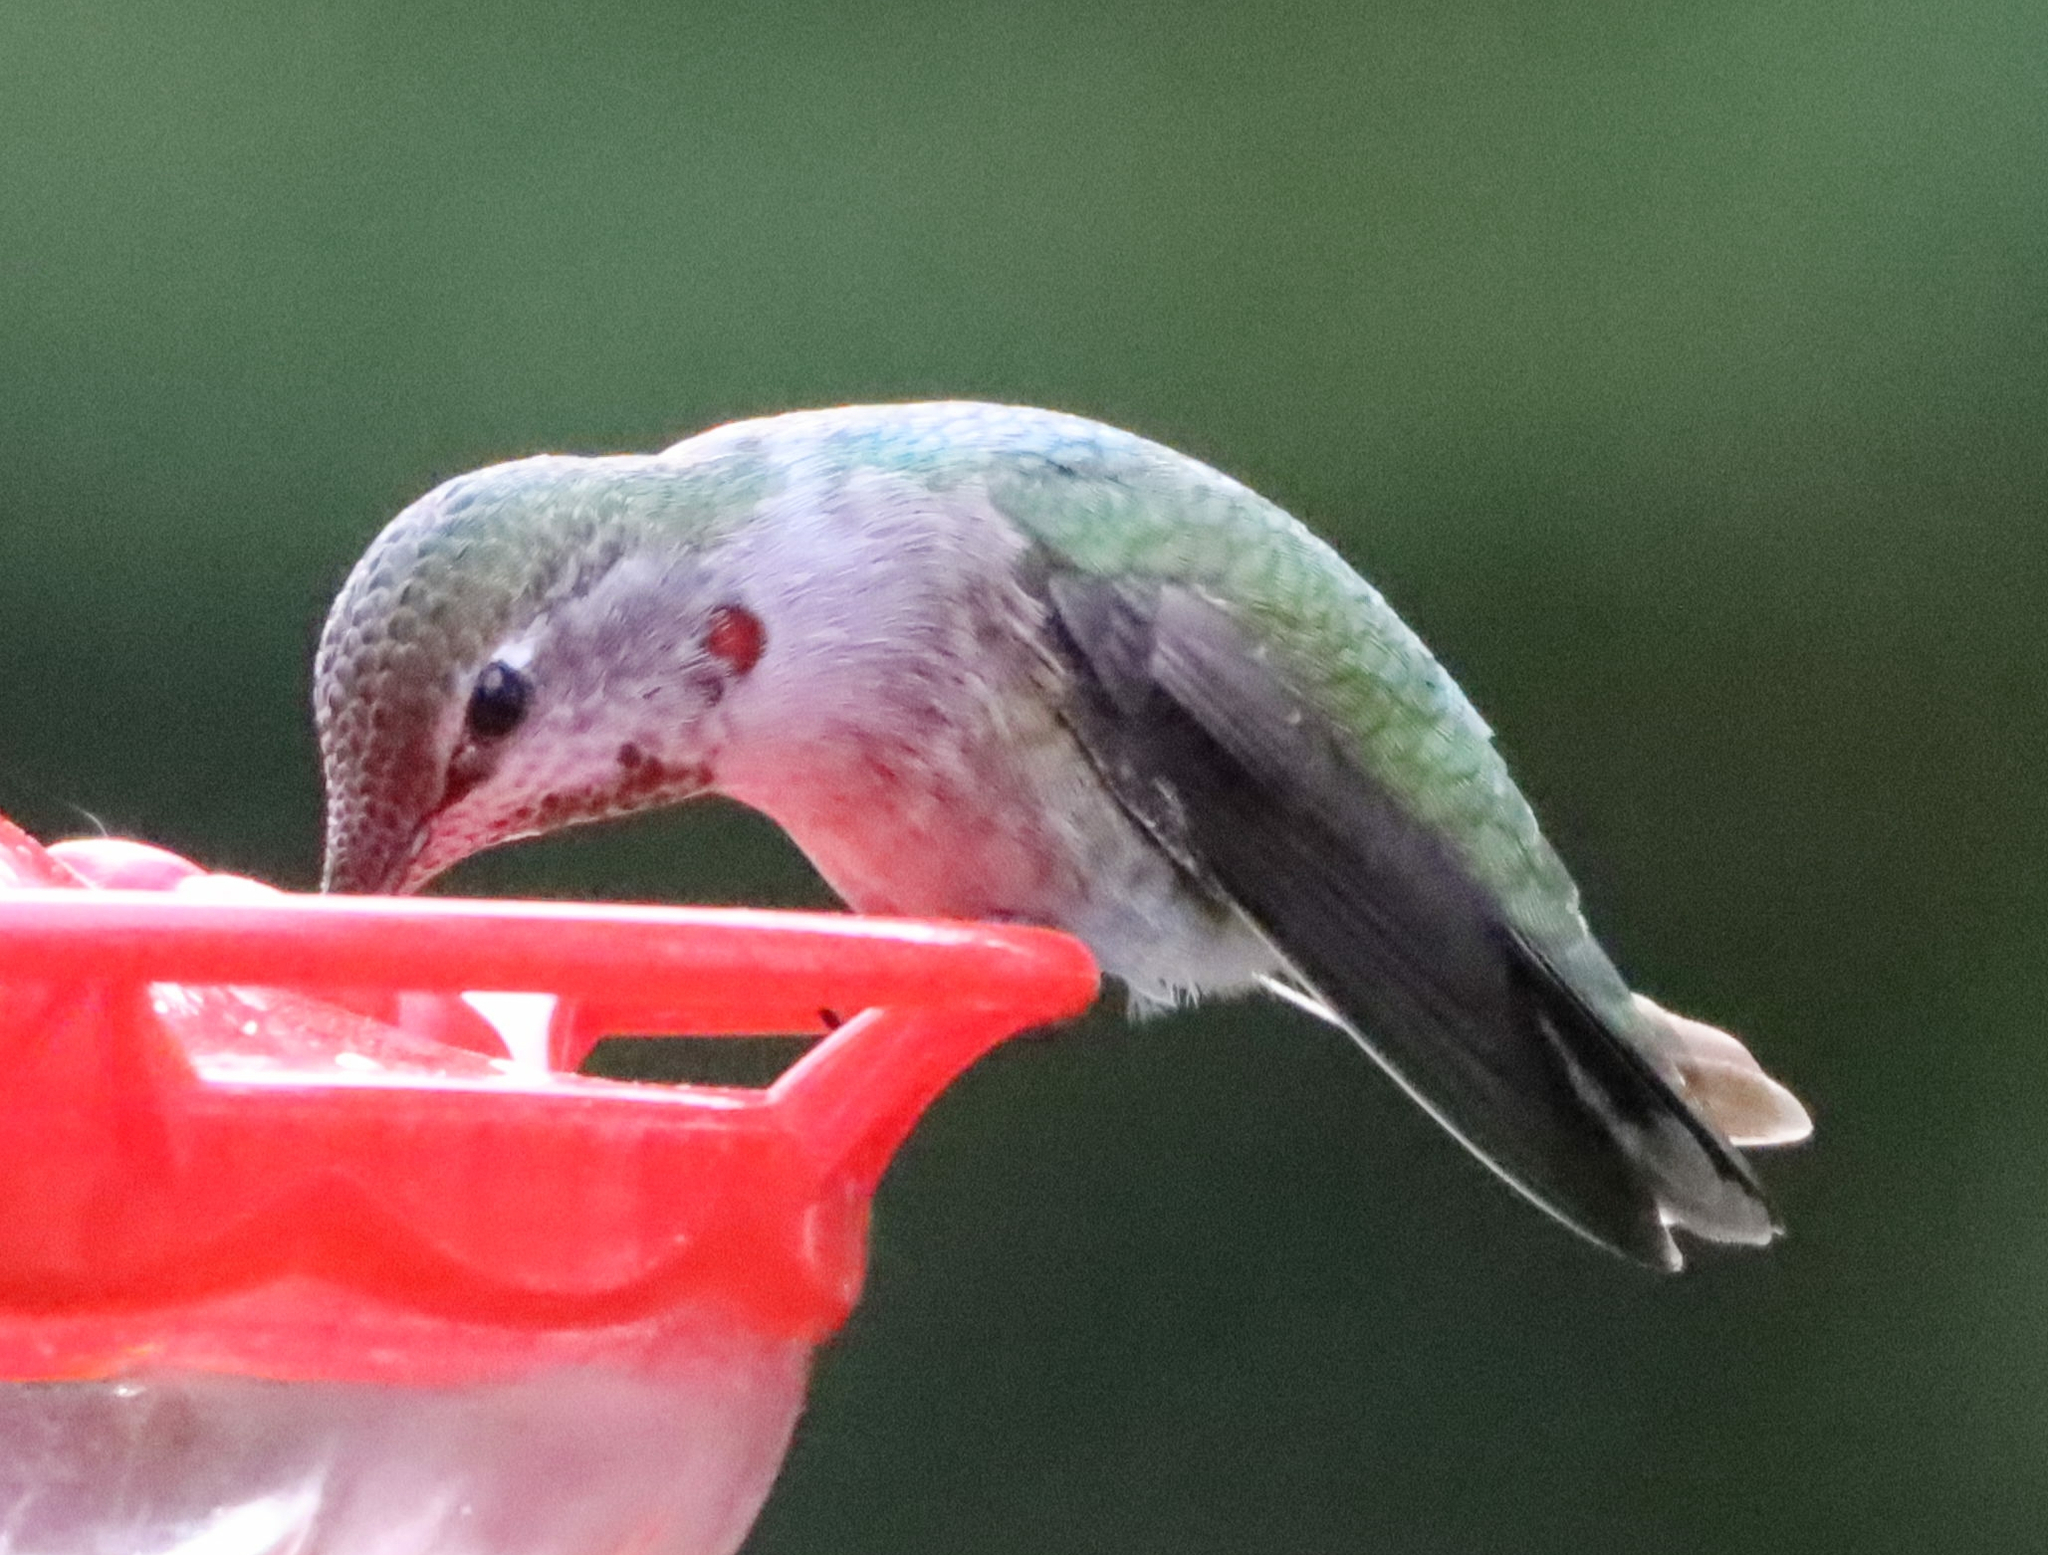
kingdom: Animalia
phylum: Chordata
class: Aves
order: Apodiformes
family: Trochilidae
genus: Calypte
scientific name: Calypte anna
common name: Anna's hummingbird
